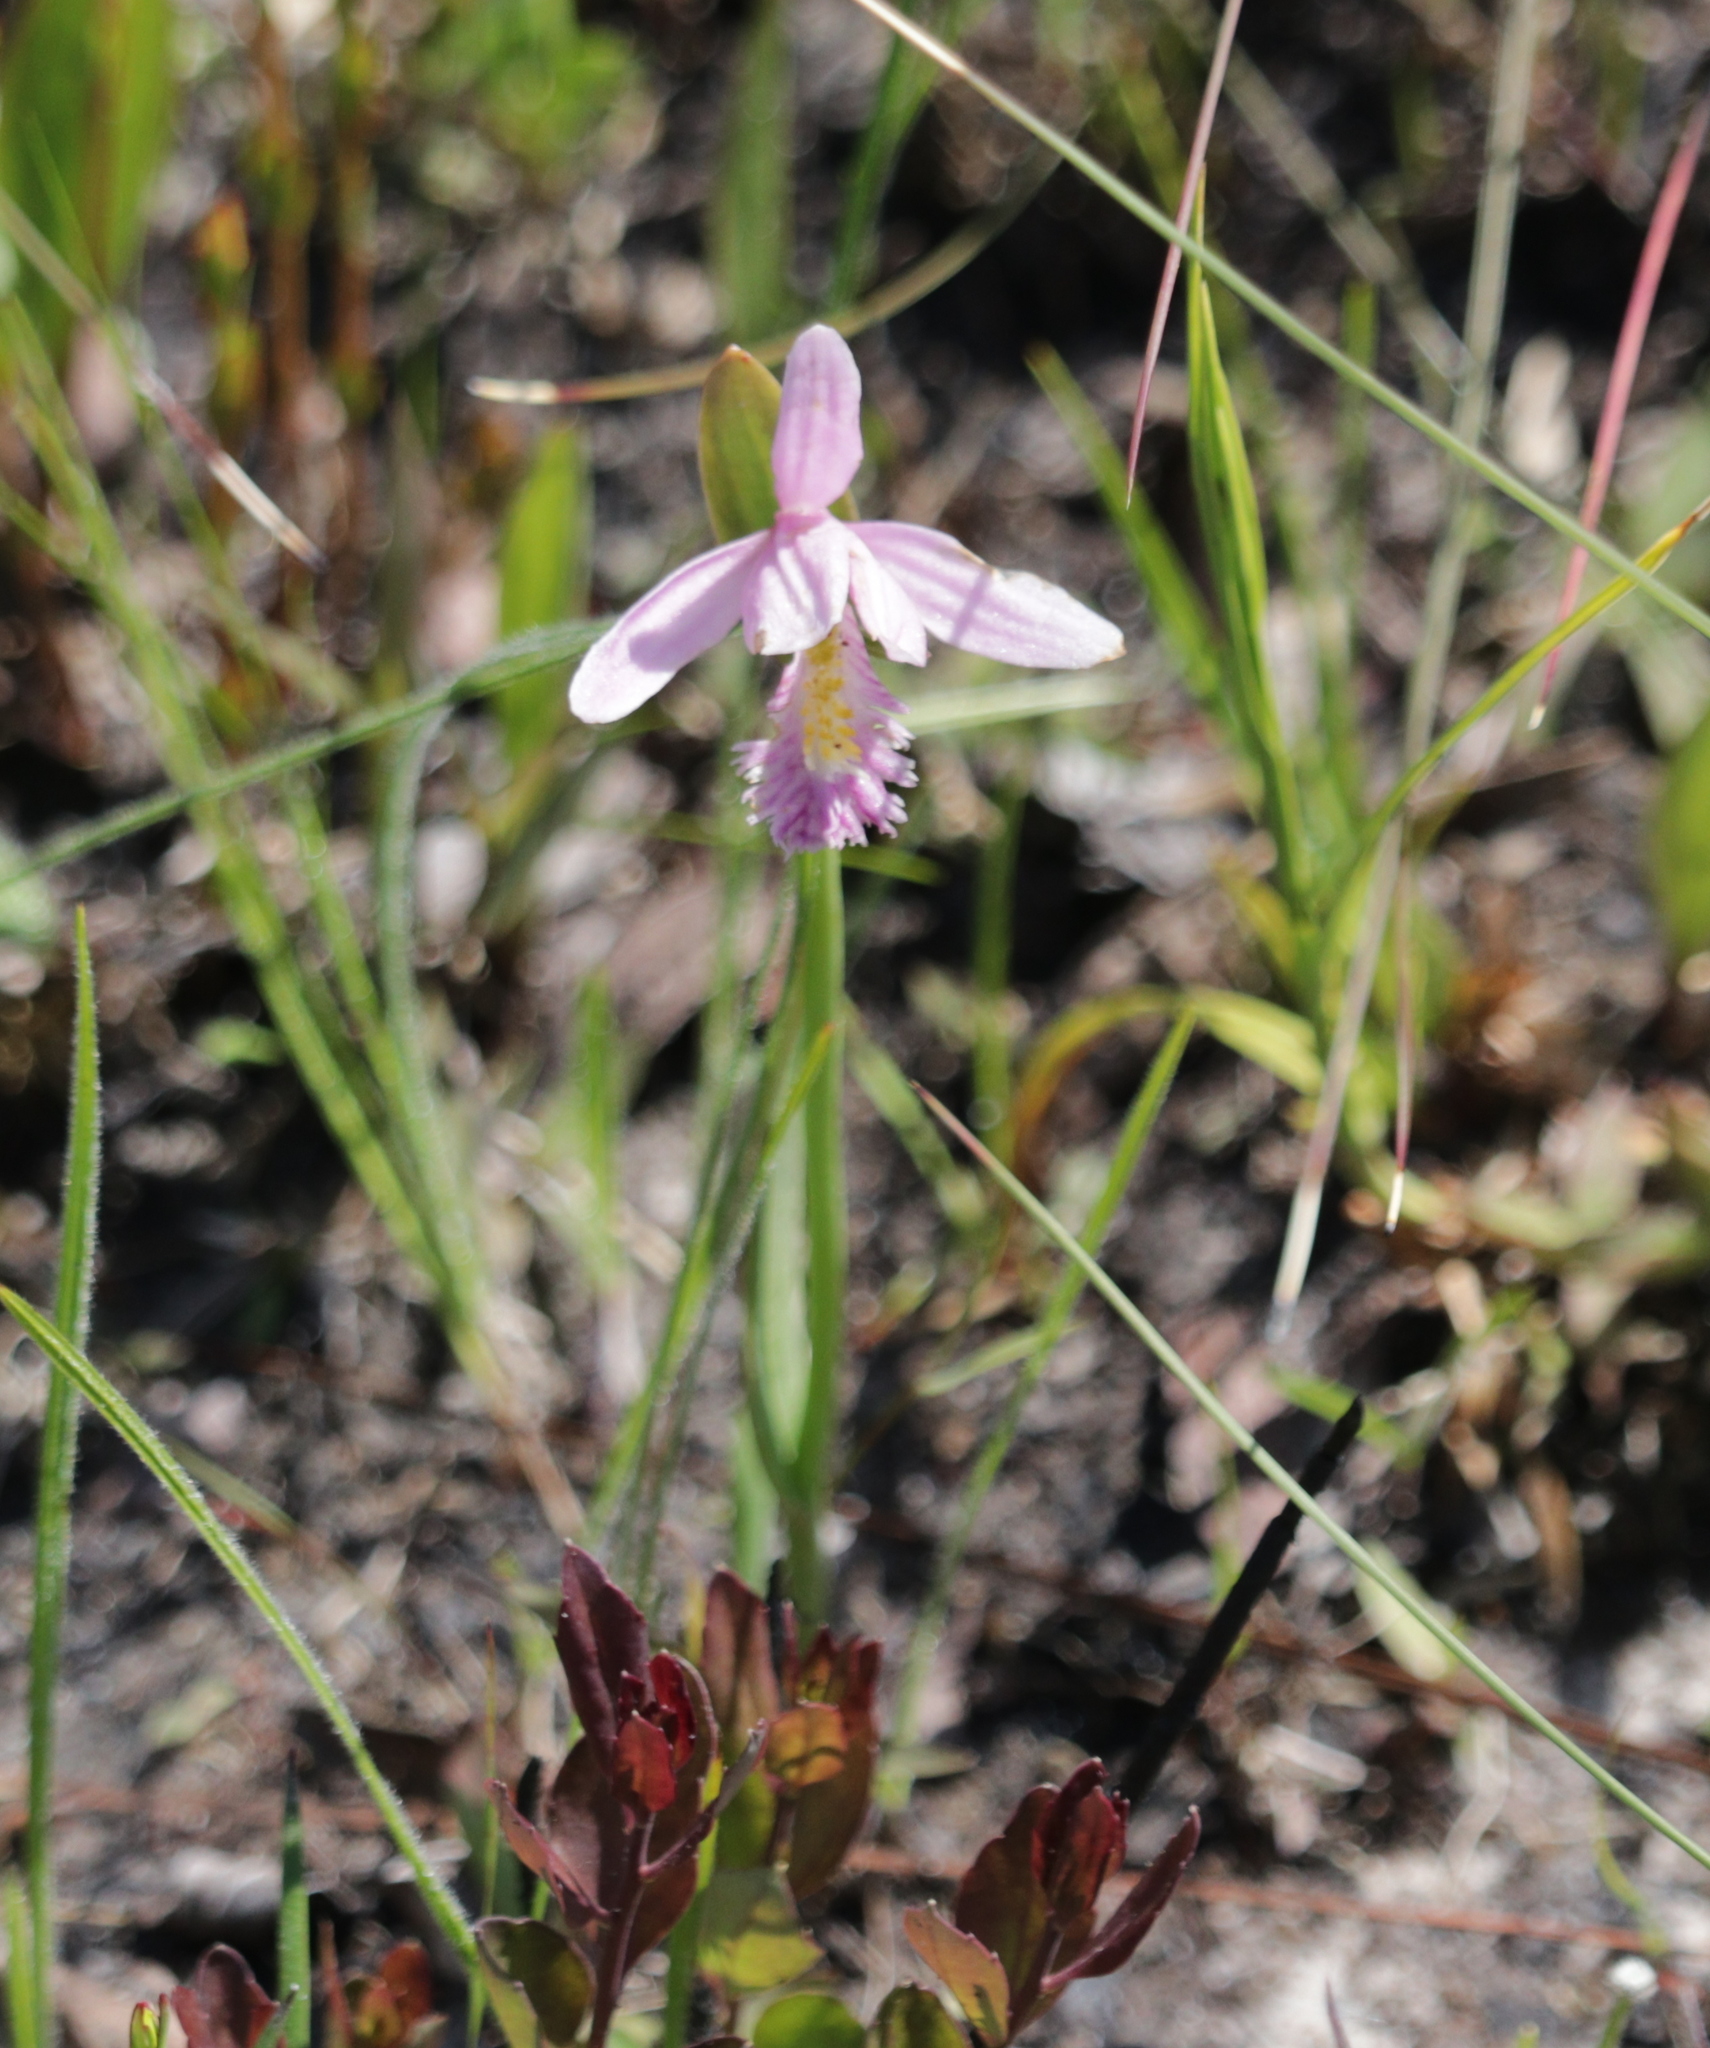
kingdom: Plantae
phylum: Tracheophyta
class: Liliopsida
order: Asparagales
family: Orchidaceae
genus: Pogonia
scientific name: Pogonia ophioglossoides
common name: Rose pogonia
